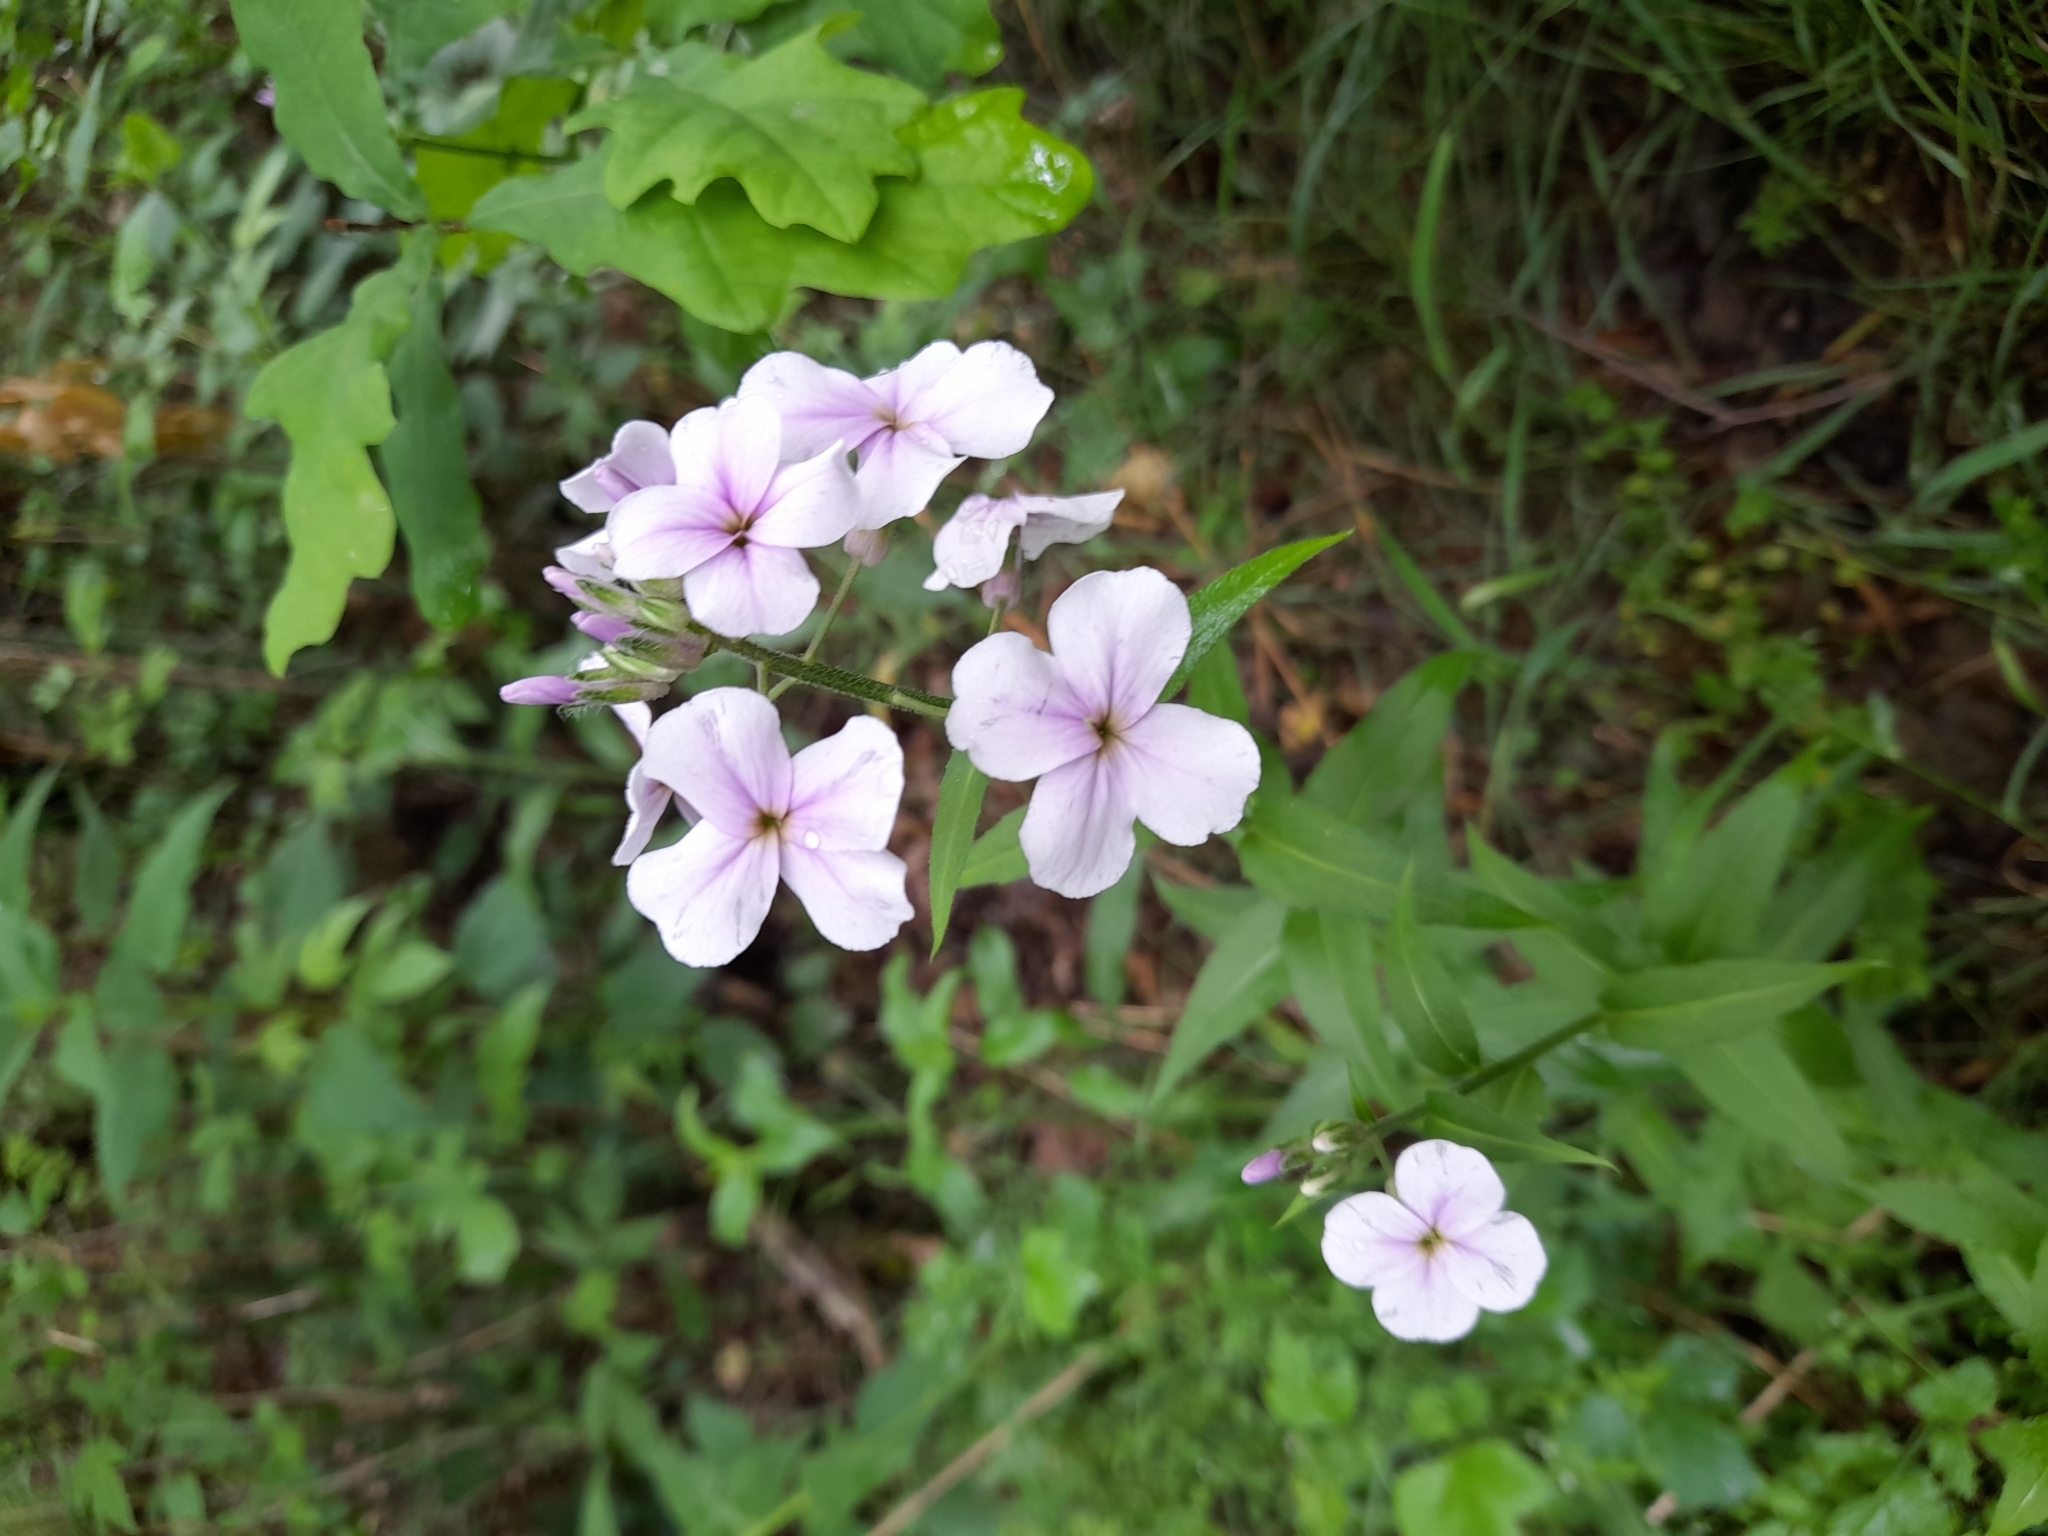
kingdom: Plantae
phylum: Tracheophyta
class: Magnoliopsida
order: Brassicales
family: Brassicaceae
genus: Hesperis
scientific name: Hesperis matronalis
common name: Dame's-violet
